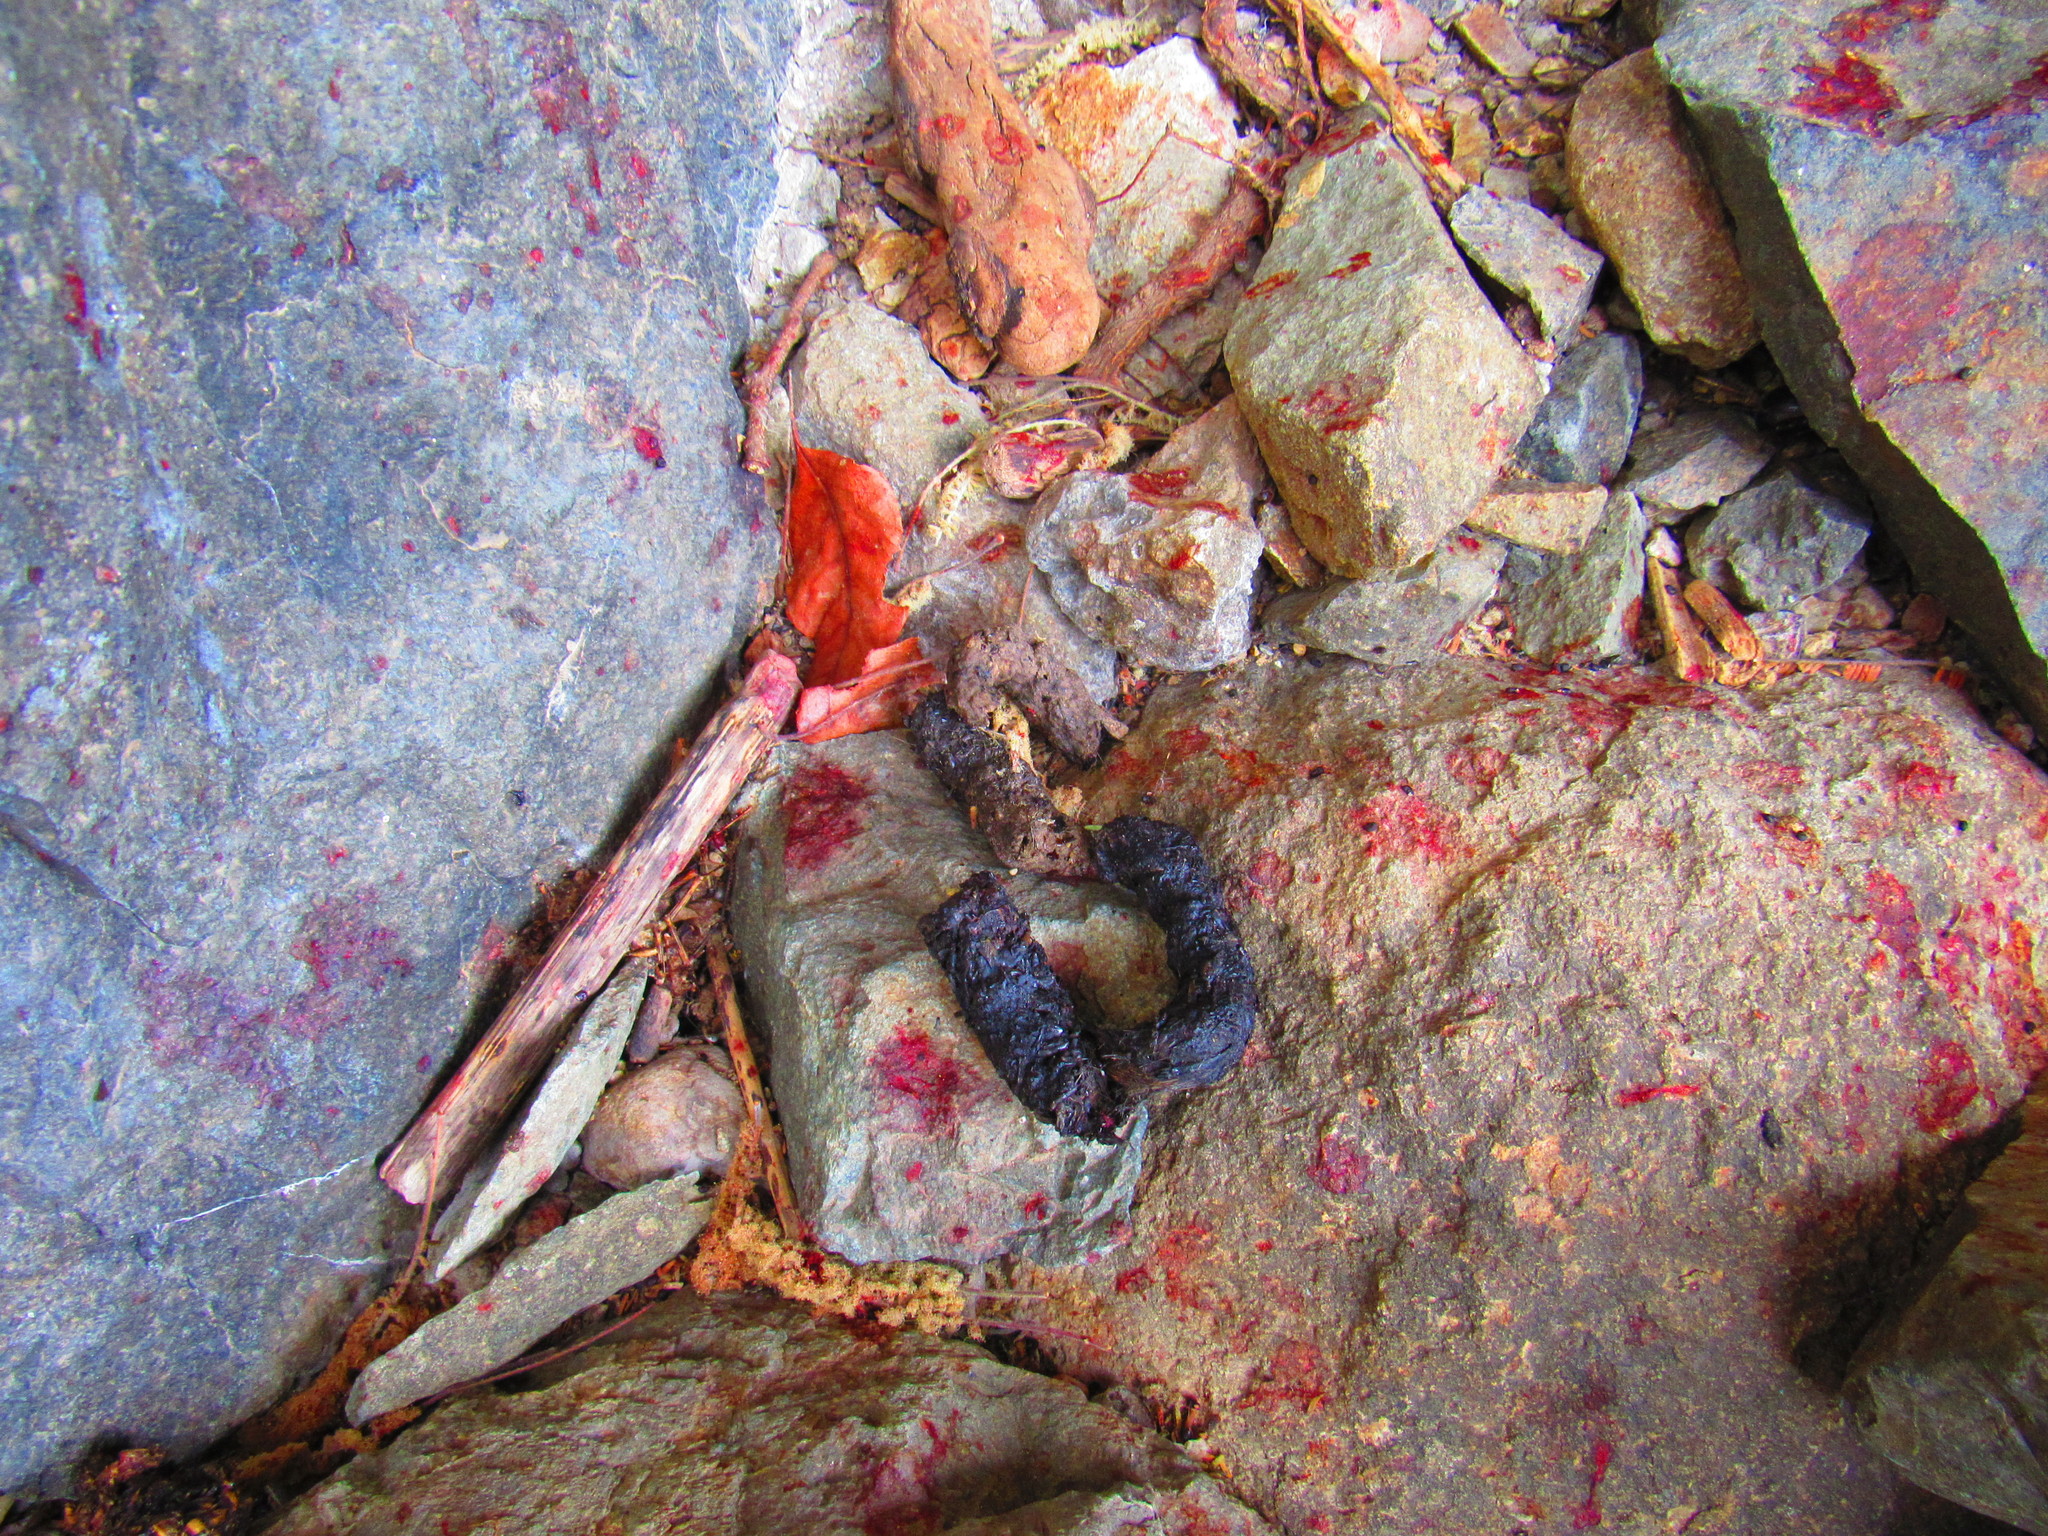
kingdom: Animalia
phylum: Chordata
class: Mammalia
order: Carnivora
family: Canidae
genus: Canis
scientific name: Canis latrans
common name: Coyote
